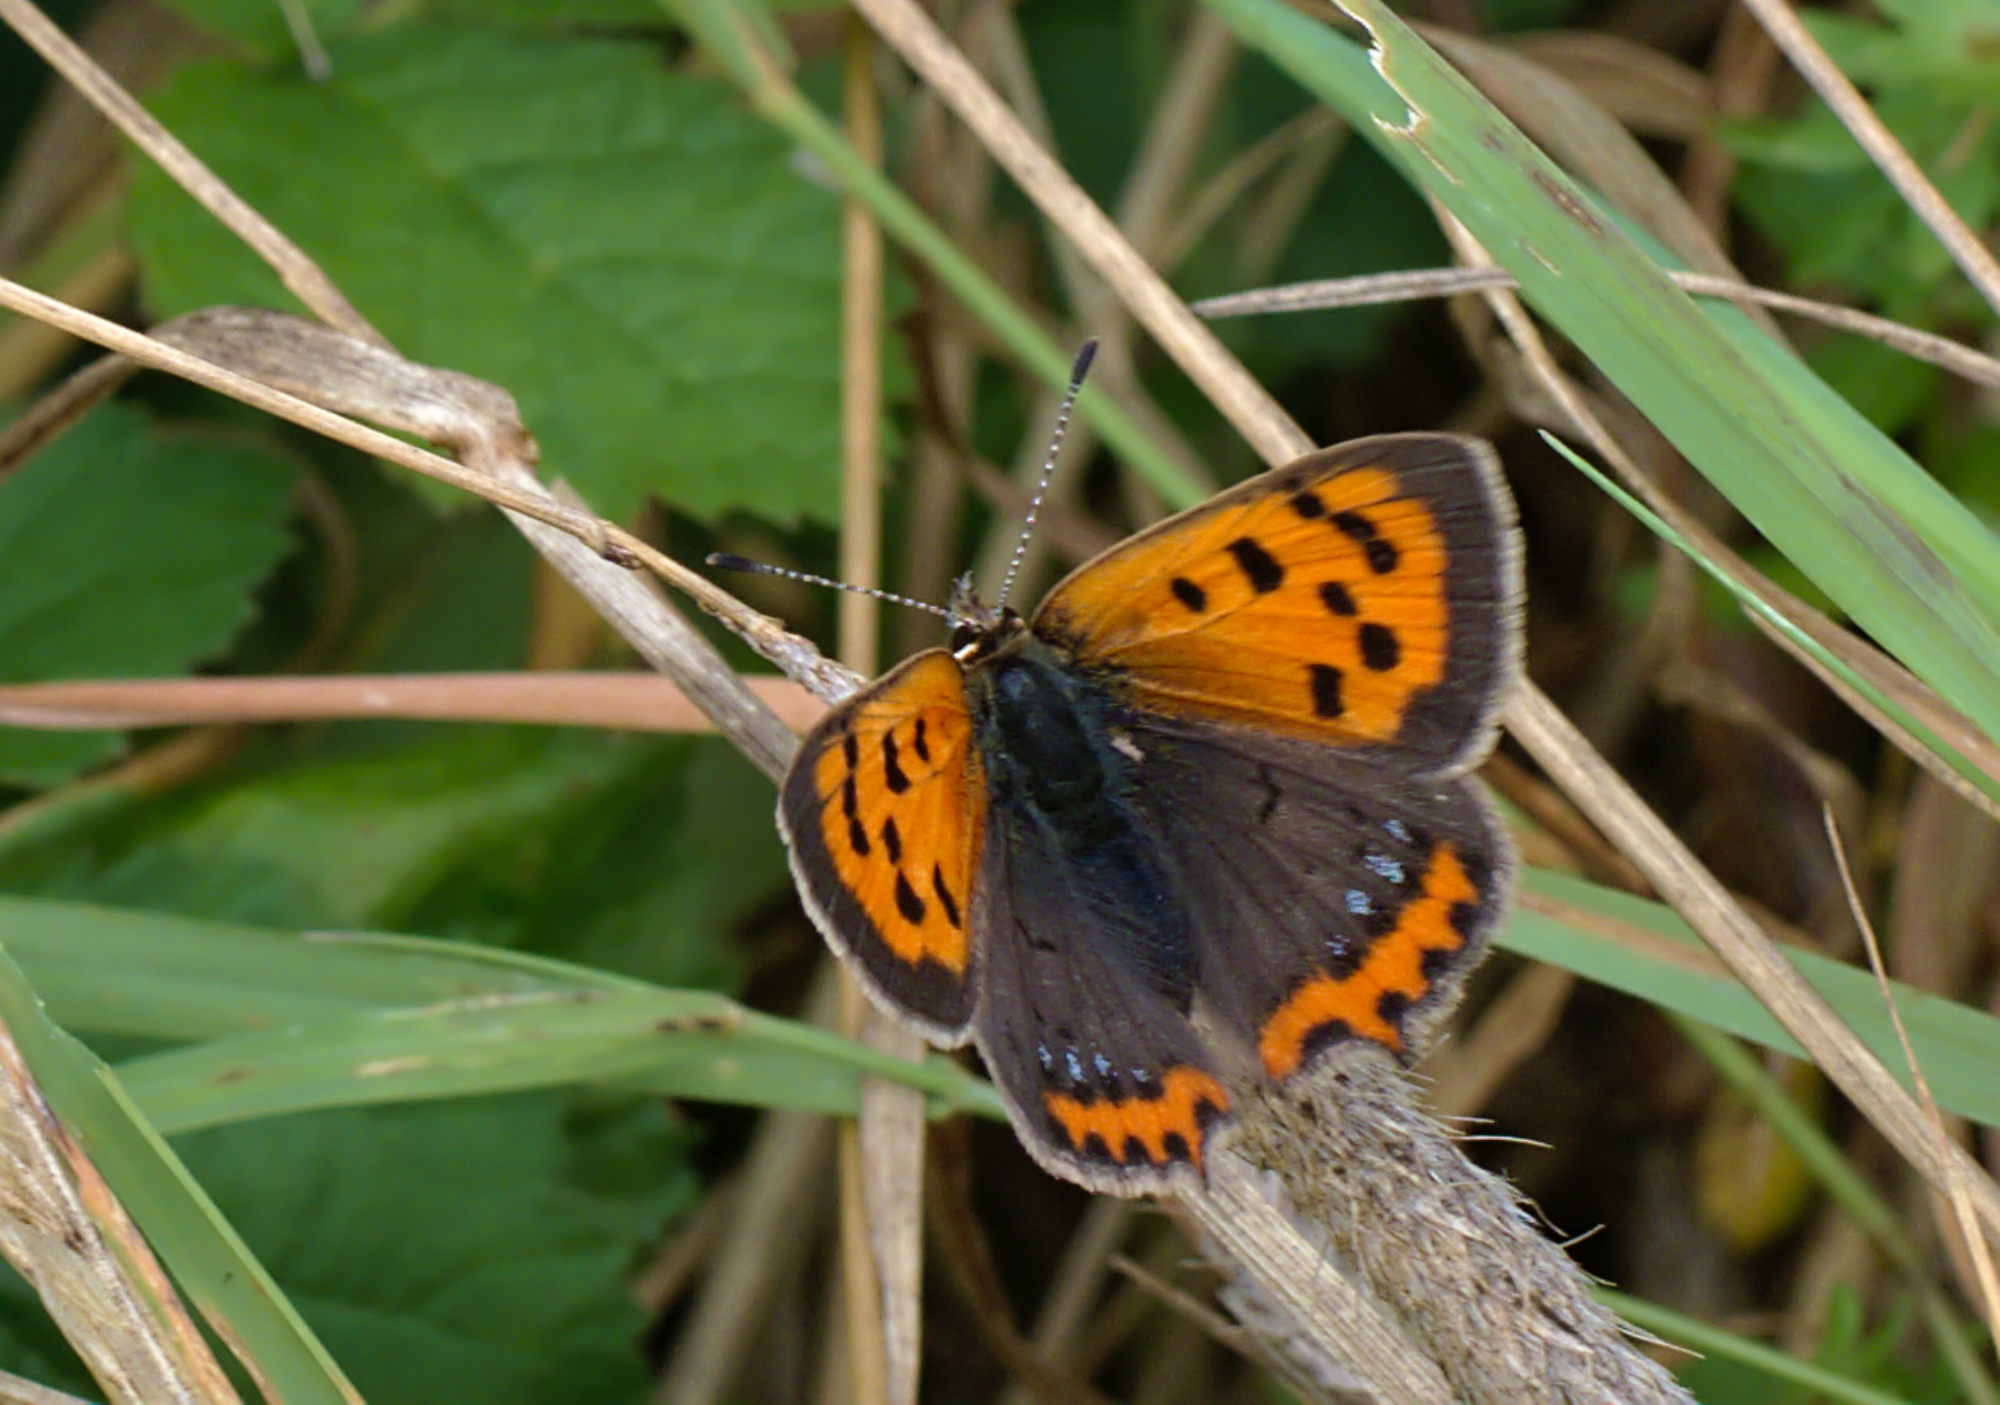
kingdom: Animalia
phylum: Arthropoda
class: Insecta
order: Lepidoptera
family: Lycaenidae
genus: Lycaena
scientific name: Lycaena phlaeas
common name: Small copper
